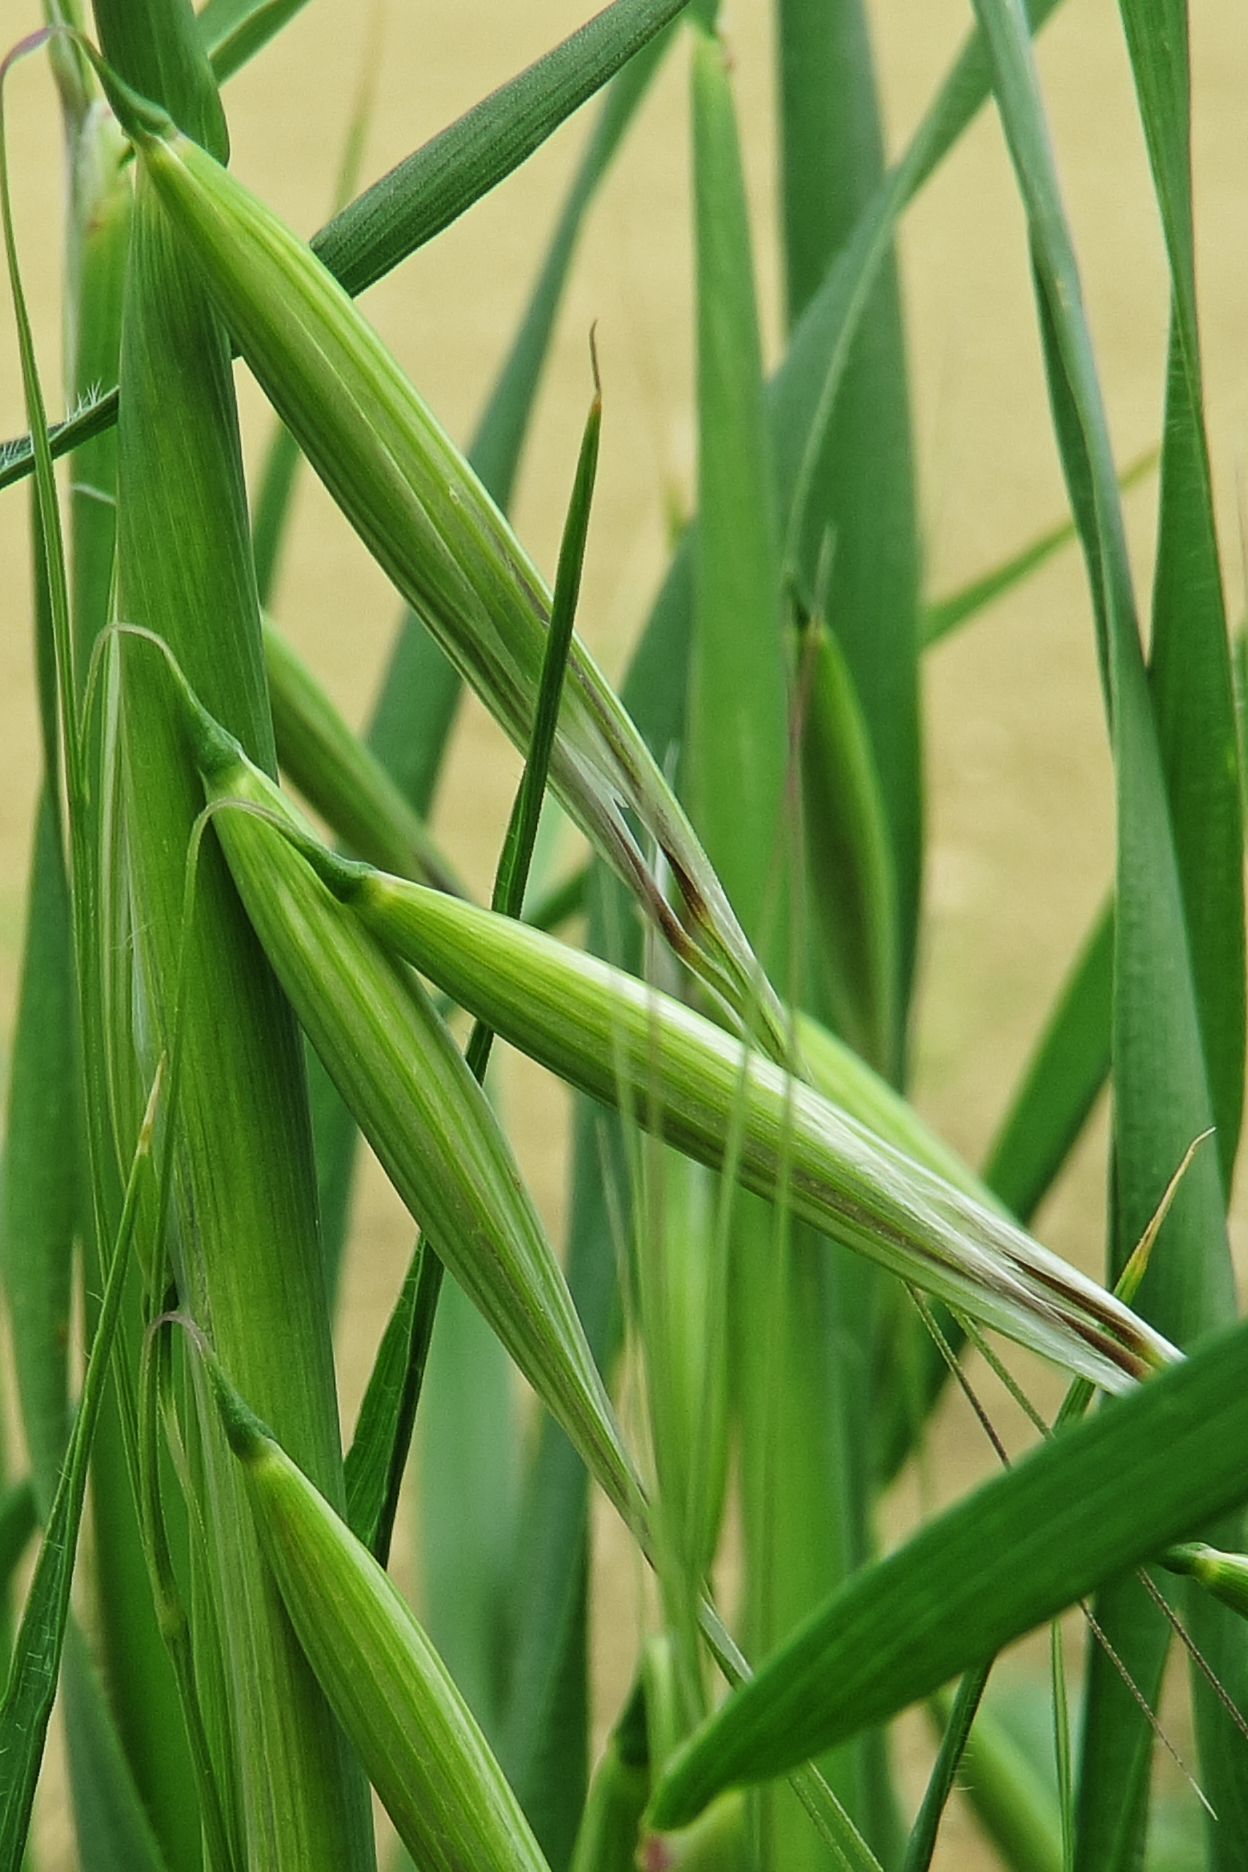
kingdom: Plantae
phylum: Tracheophyta
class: Liliopsida
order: Poales
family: Poaceae
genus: Avena
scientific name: Avena sterilis
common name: Animated oat
